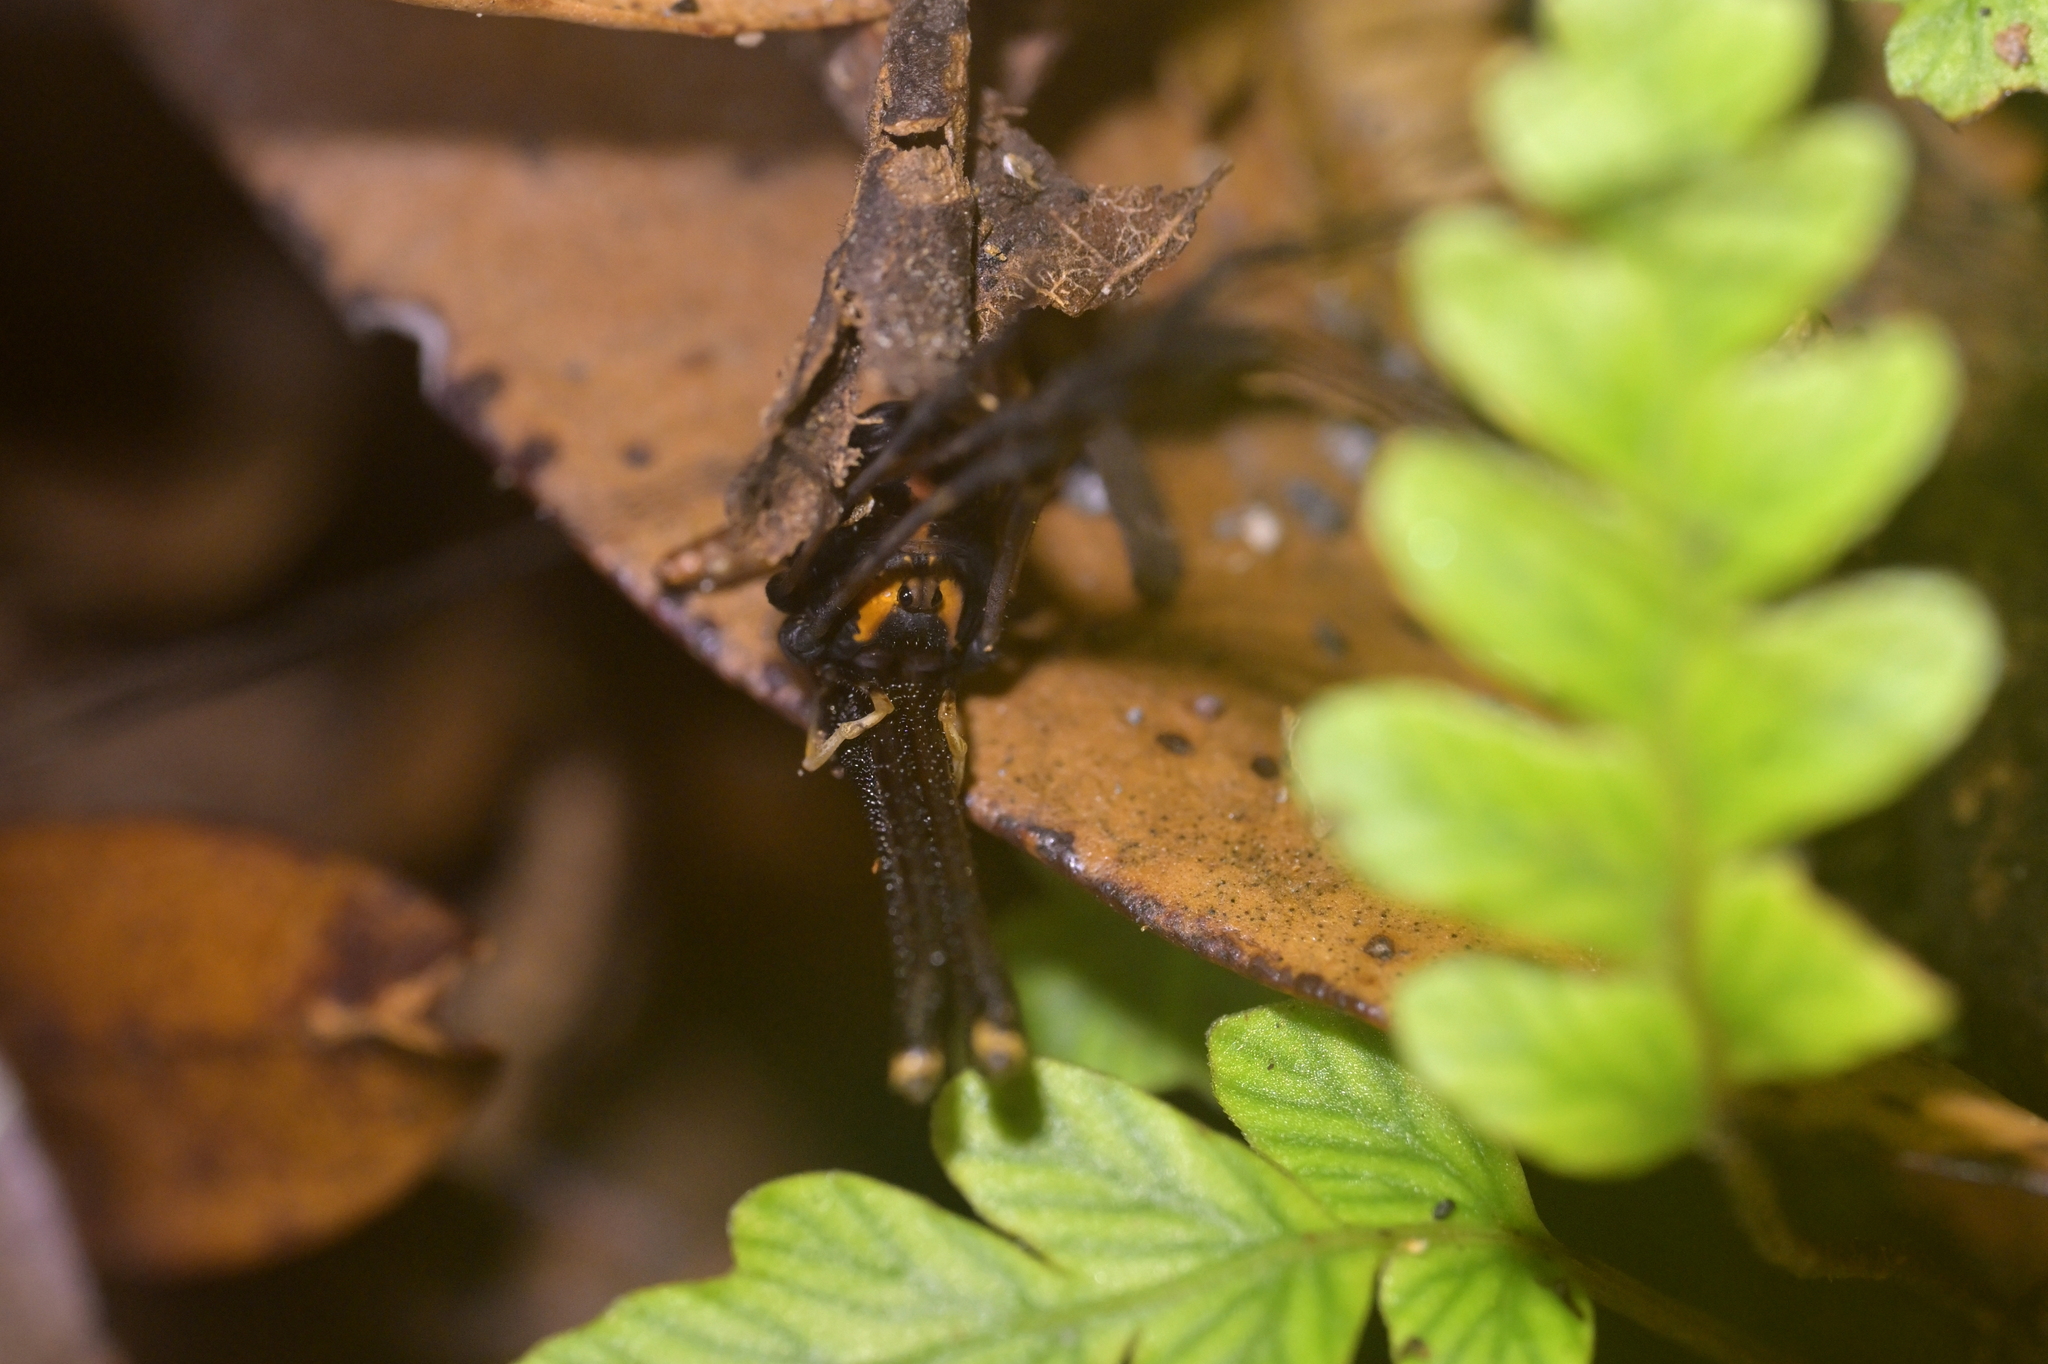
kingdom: Animalia
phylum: Arthropoda
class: Arachnida
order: Opiliones
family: Neopilionidae
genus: Forsteropsalis
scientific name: Forsteropsalis pureora
